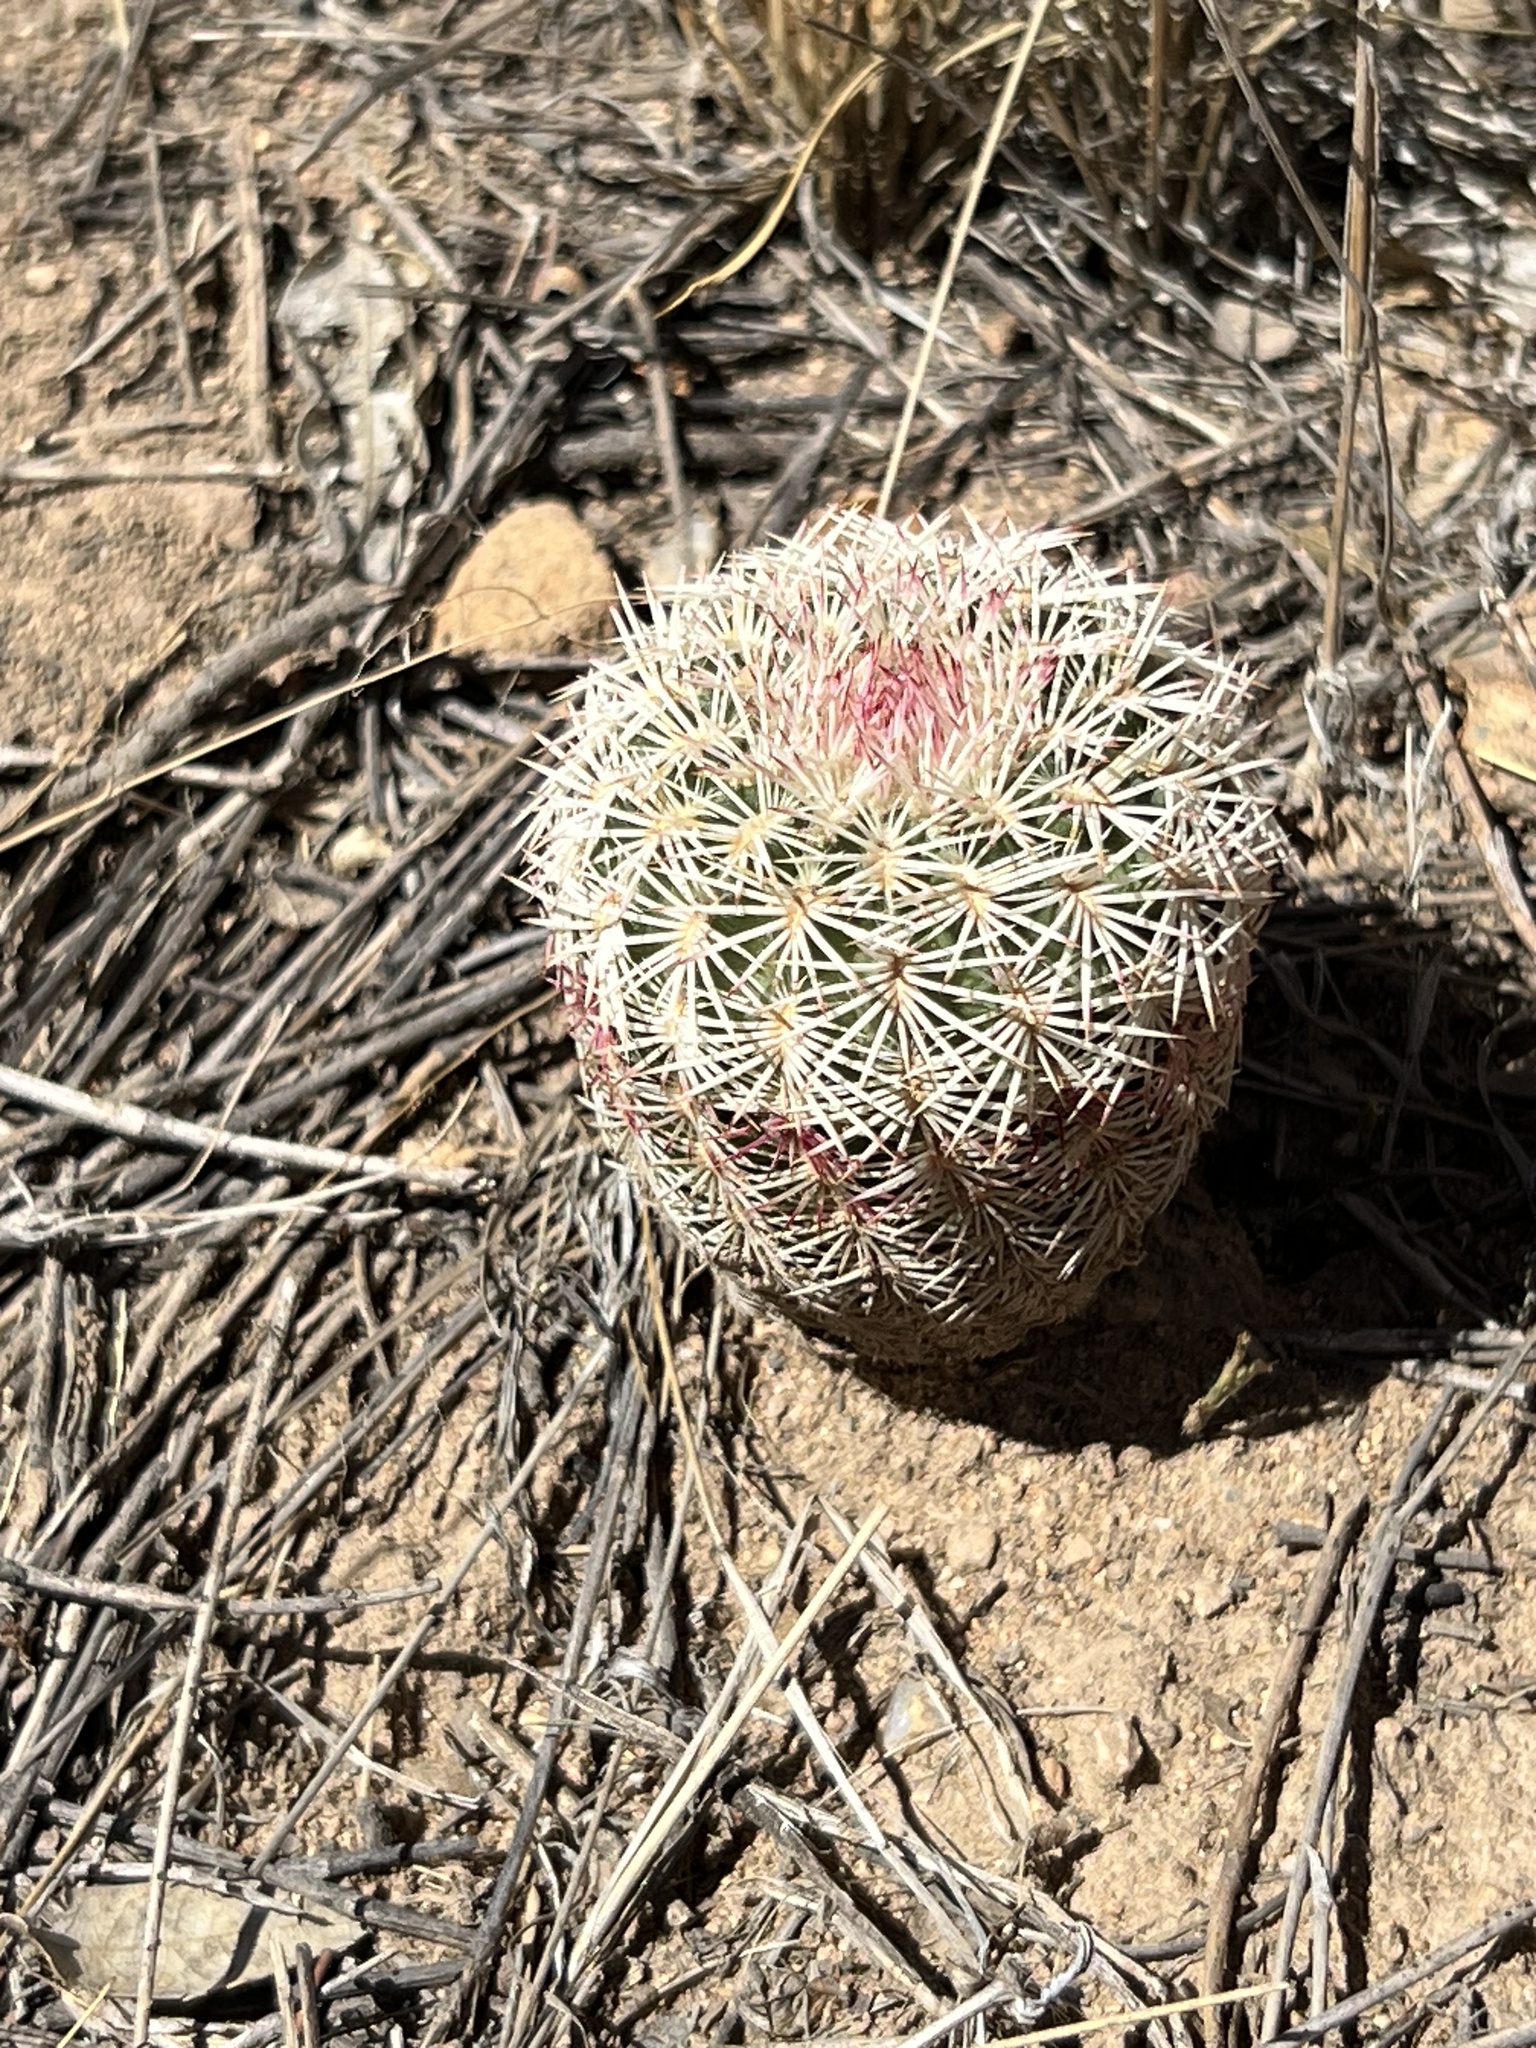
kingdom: Plantae
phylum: Tracheophyta
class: Magnoliopsida
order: Caryophyllales
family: Cactaceae
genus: Echinocereus
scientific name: Echinocereus rigidissimus
